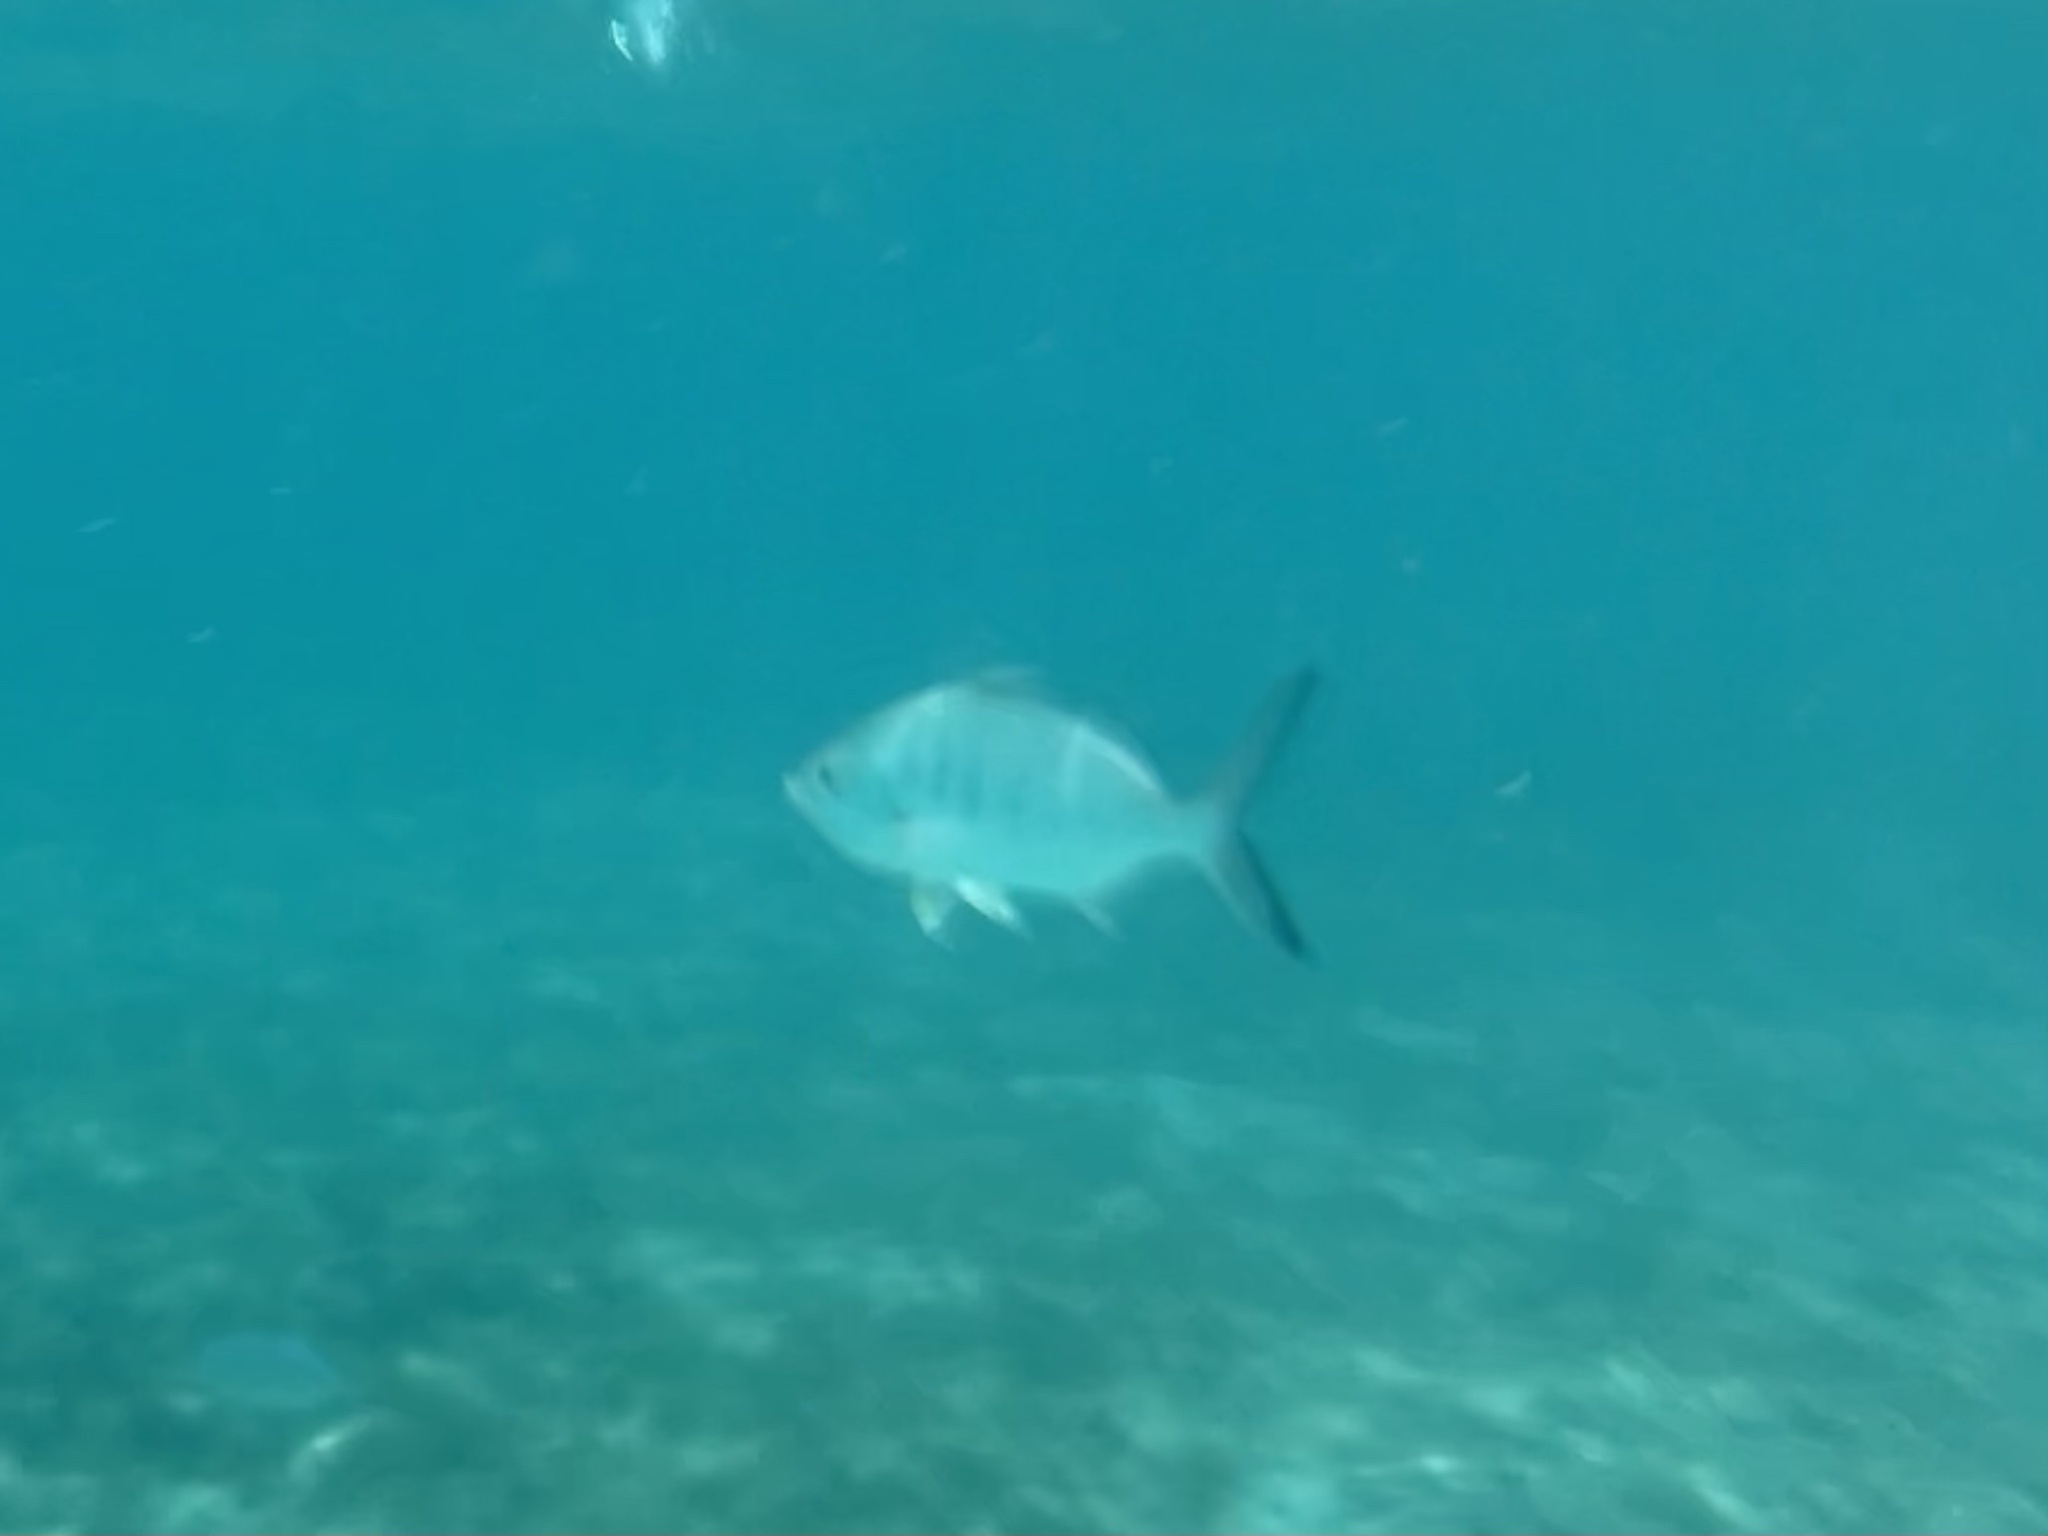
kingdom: Animalia
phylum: Chordata
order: Perciformes
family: Gerreidae
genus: Gerres
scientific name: Gerres cinereus
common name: Hedow
